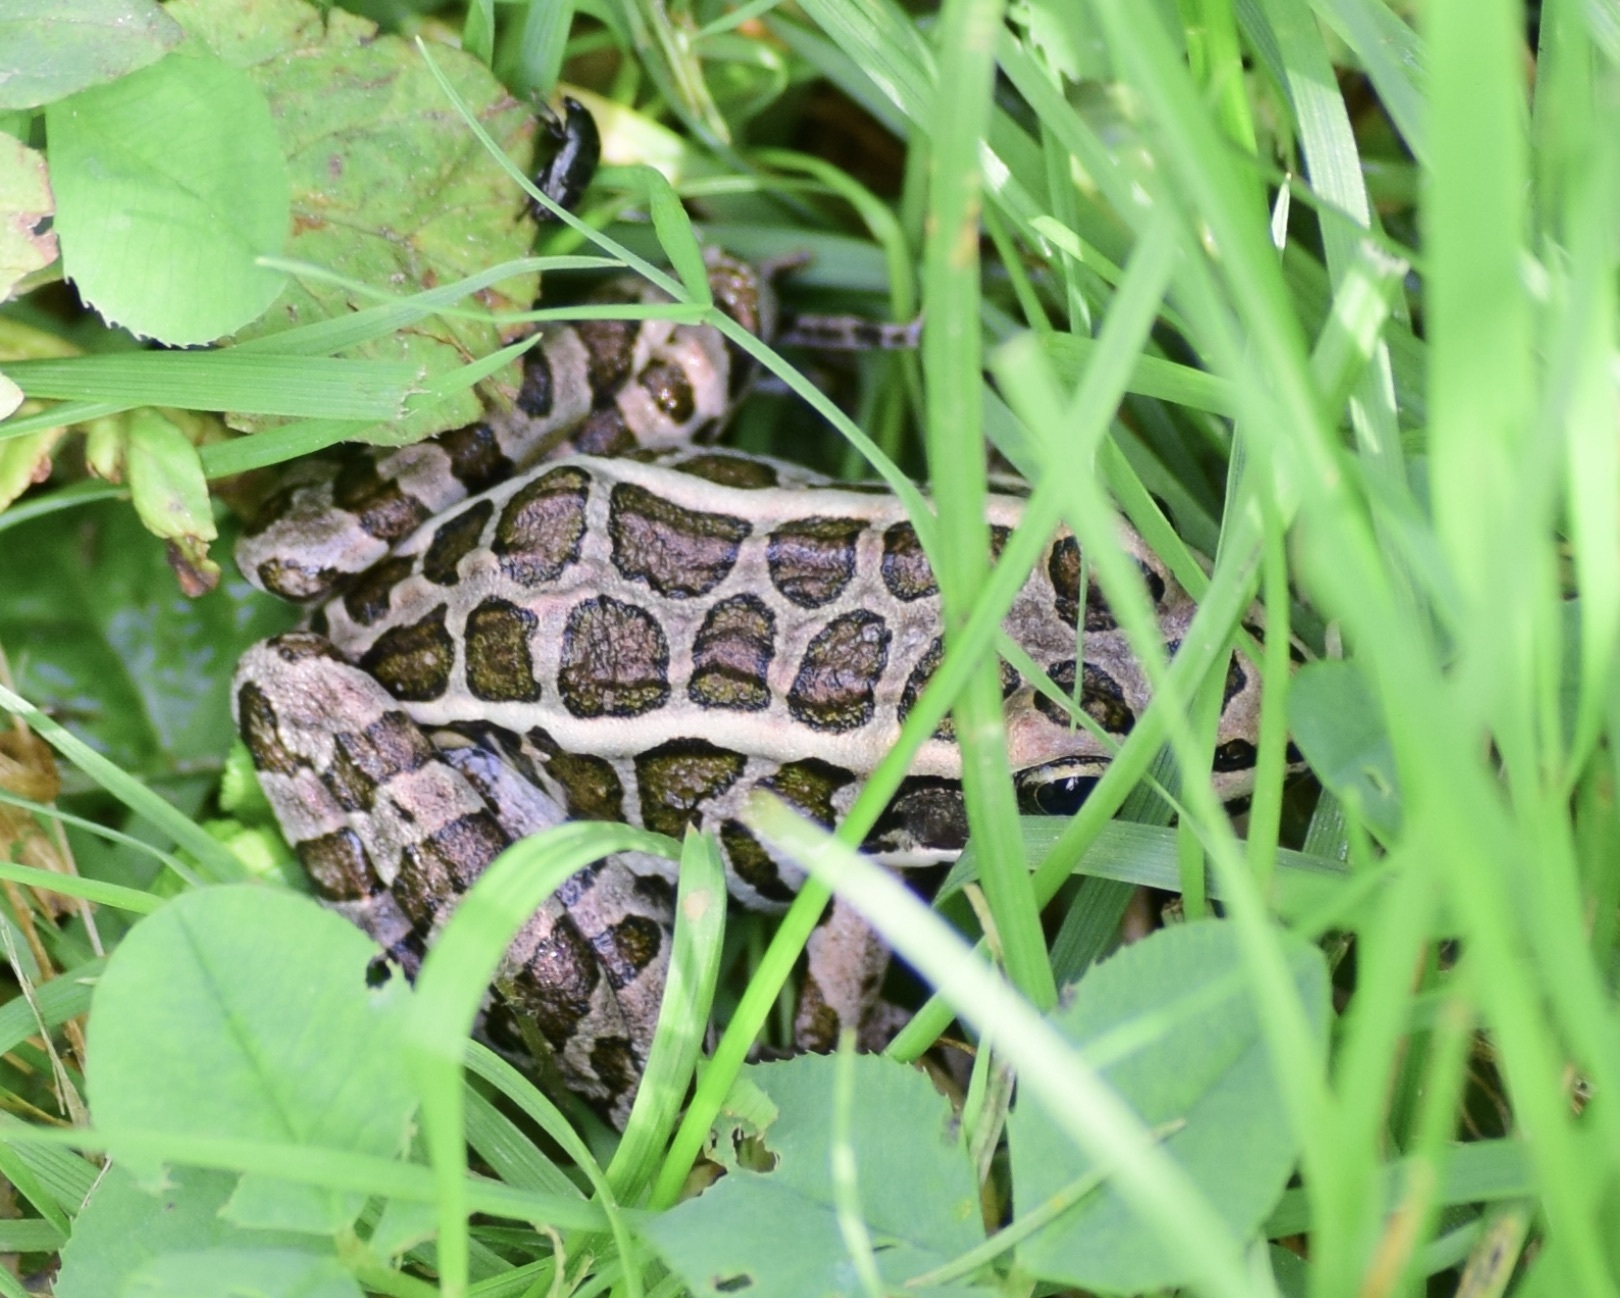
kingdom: Animalia
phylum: Chordata
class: Amphibia
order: Anura
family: Ranidae
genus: Lithobates
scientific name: Lithobates palustris
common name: Pickerel frog
